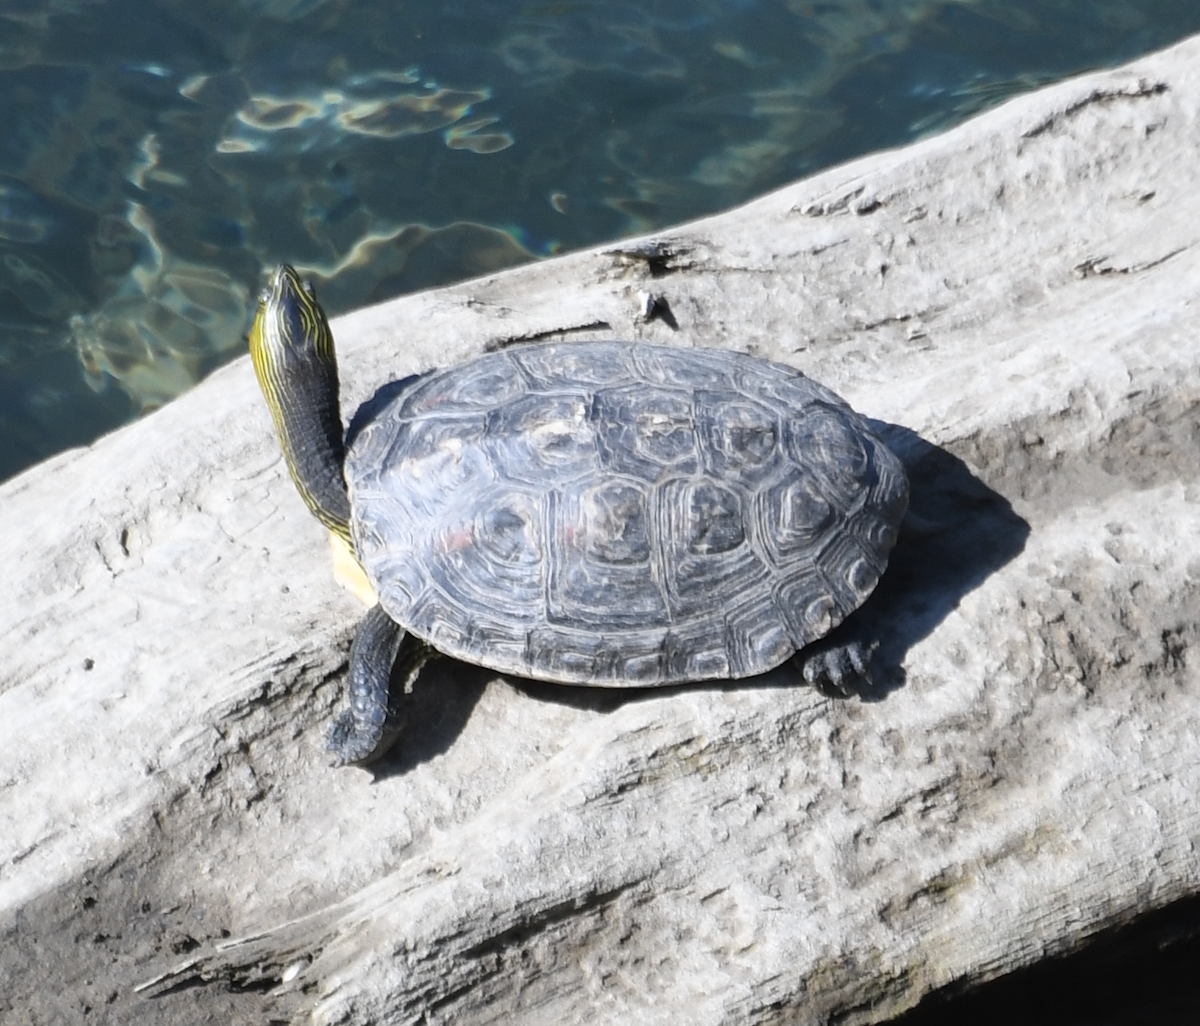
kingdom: Animalia
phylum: Chordata
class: Testudines
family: Geoemydidae
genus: Mauremys
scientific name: Mauremys sinensis
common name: Chinese stripe-necked turtle
